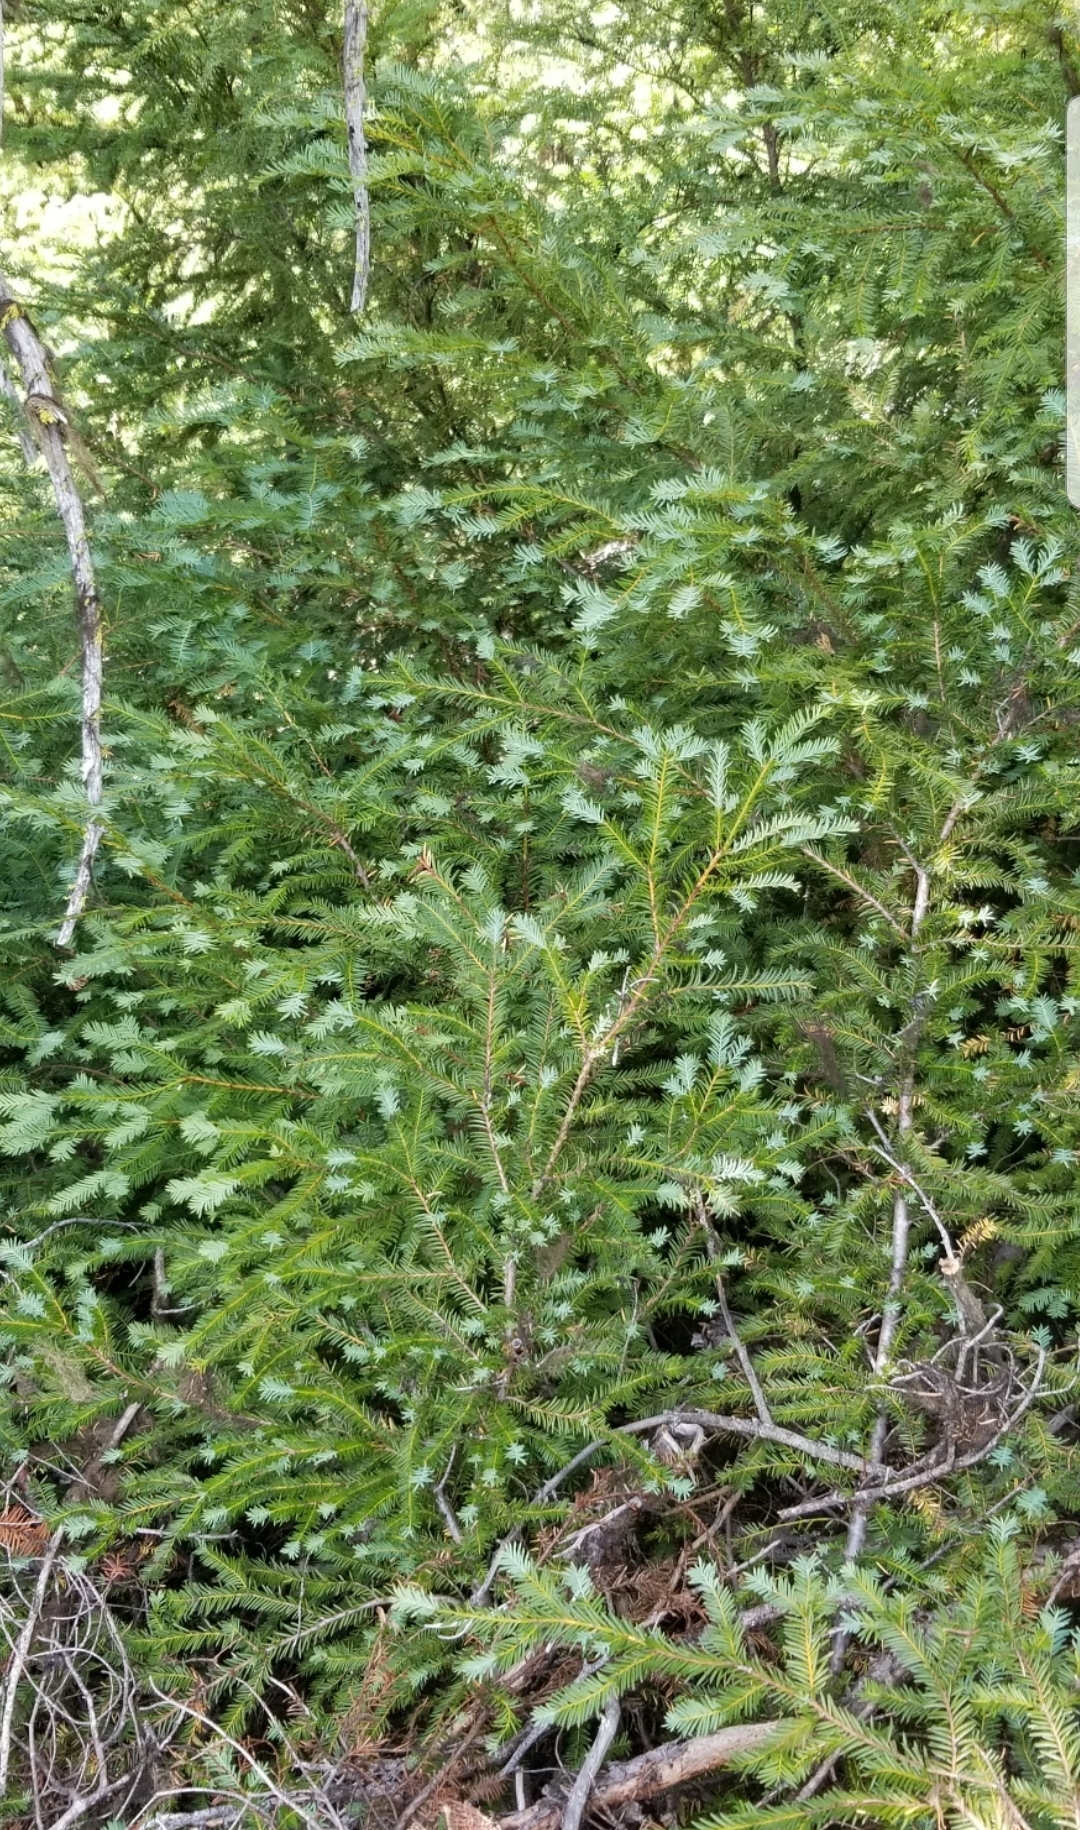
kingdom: Plantae
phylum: Tracheophyta
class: Pinopsida
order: Pinales
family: Taxaceae
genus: Taxus
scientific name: Taxus brevifolia
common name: Pacific yew
